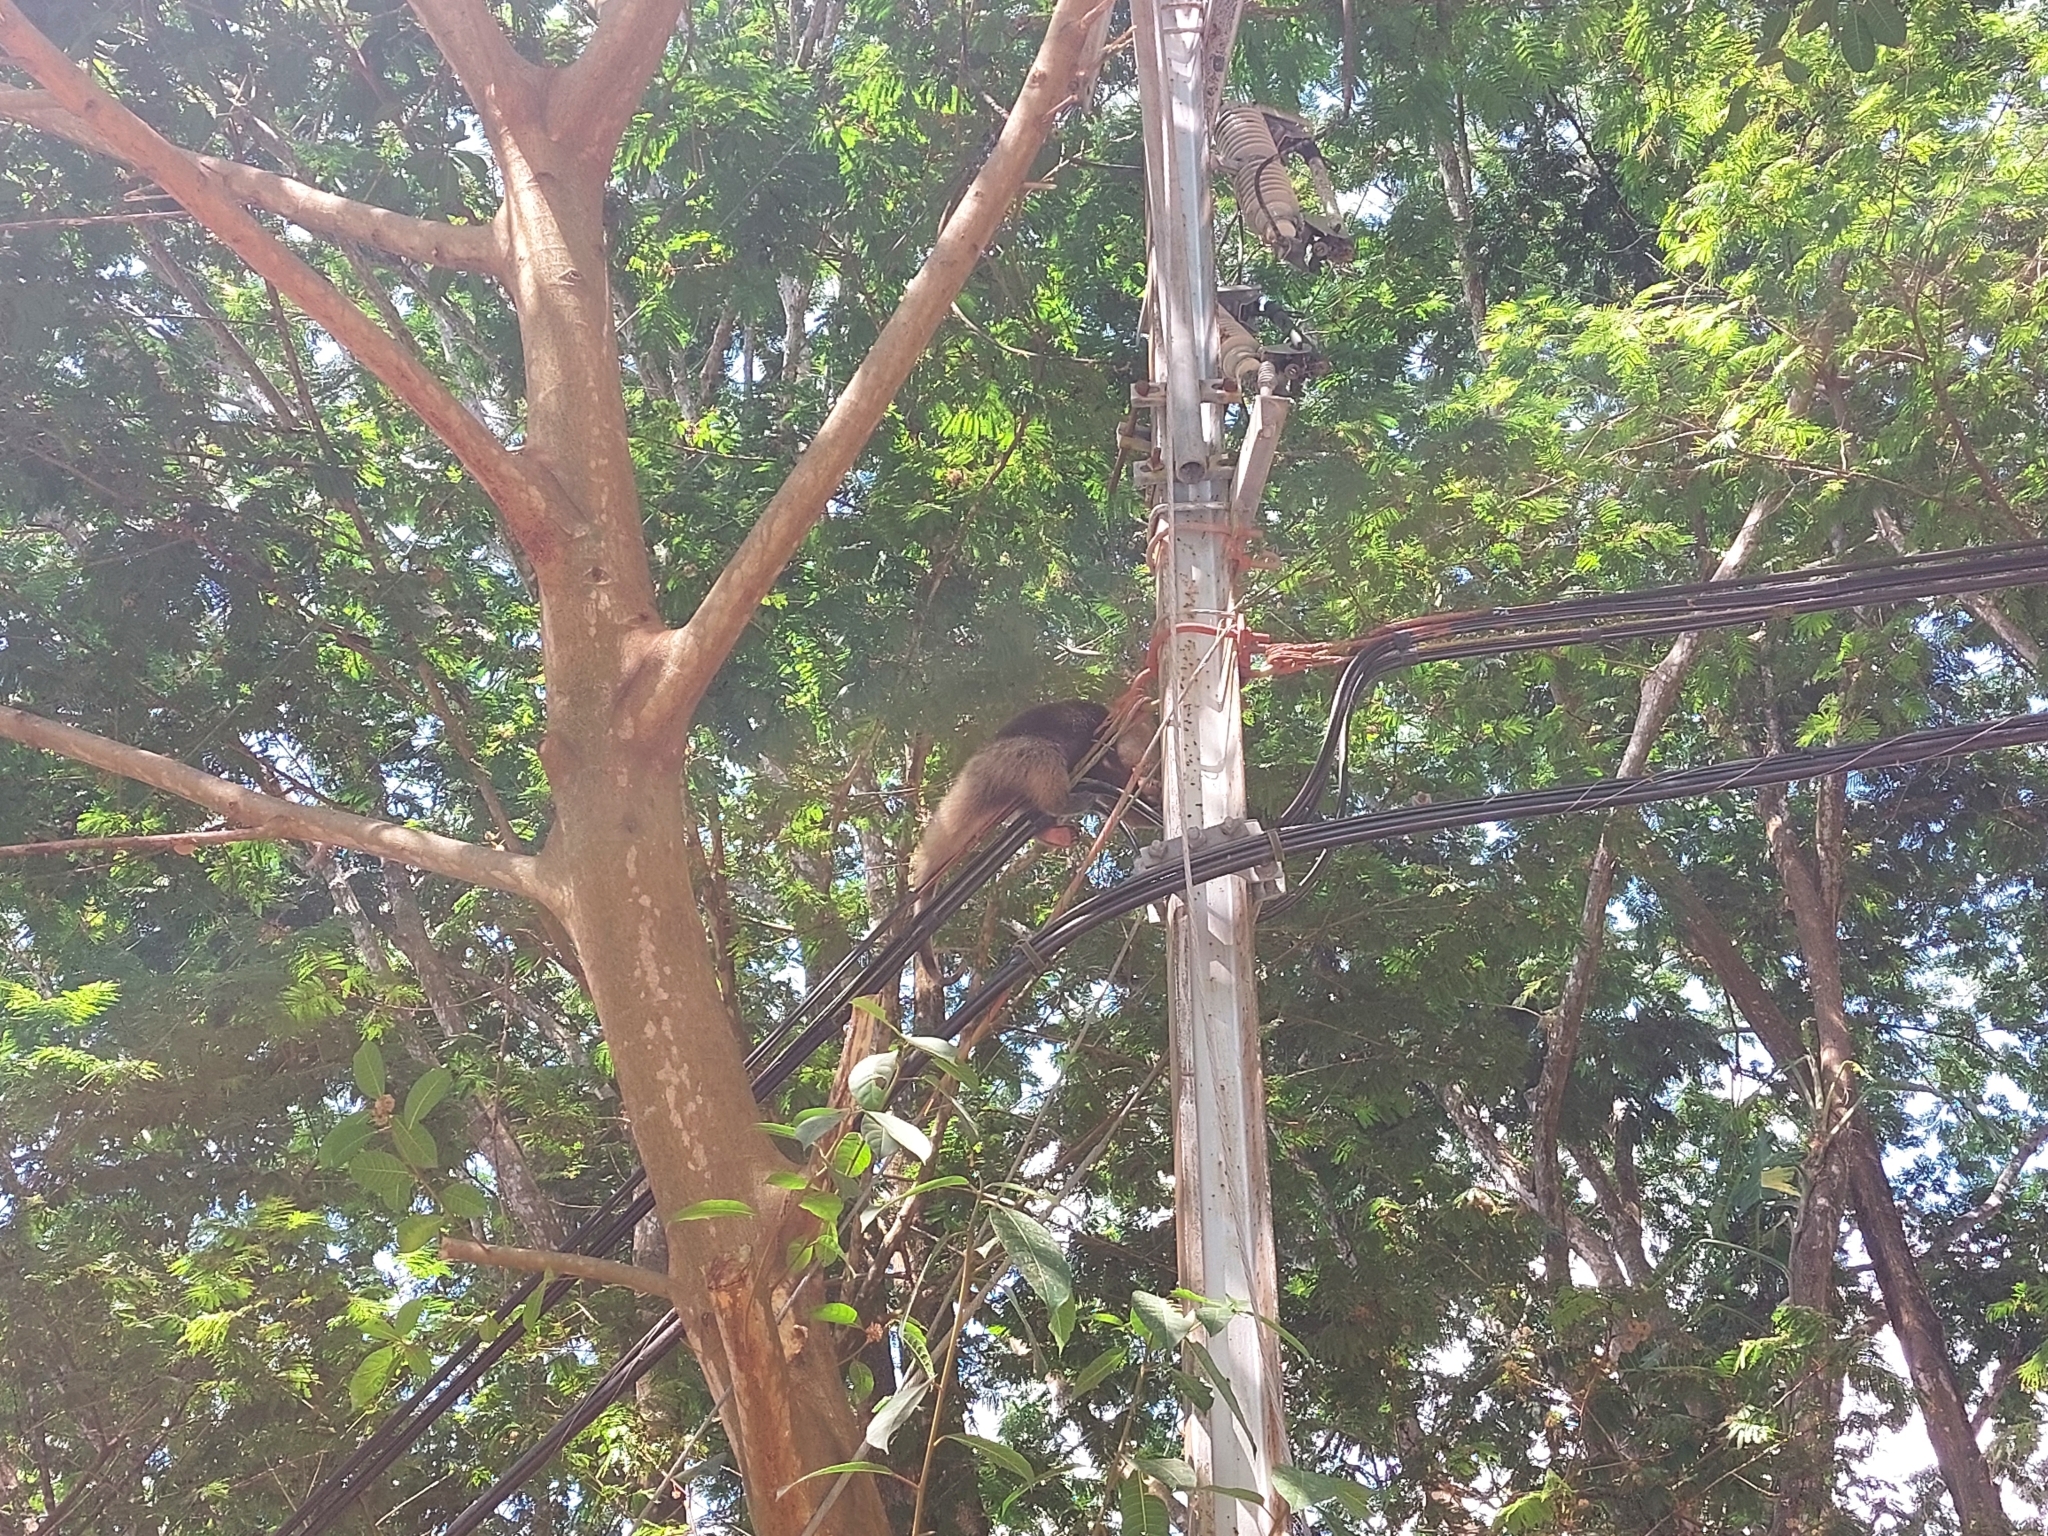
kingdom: Animalia
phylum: Chordata
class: Mammalia
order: Pilosa
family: Myrmecophagidae
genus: Tamandua
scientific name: Tamandua mexicana
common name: Northern tamandua
